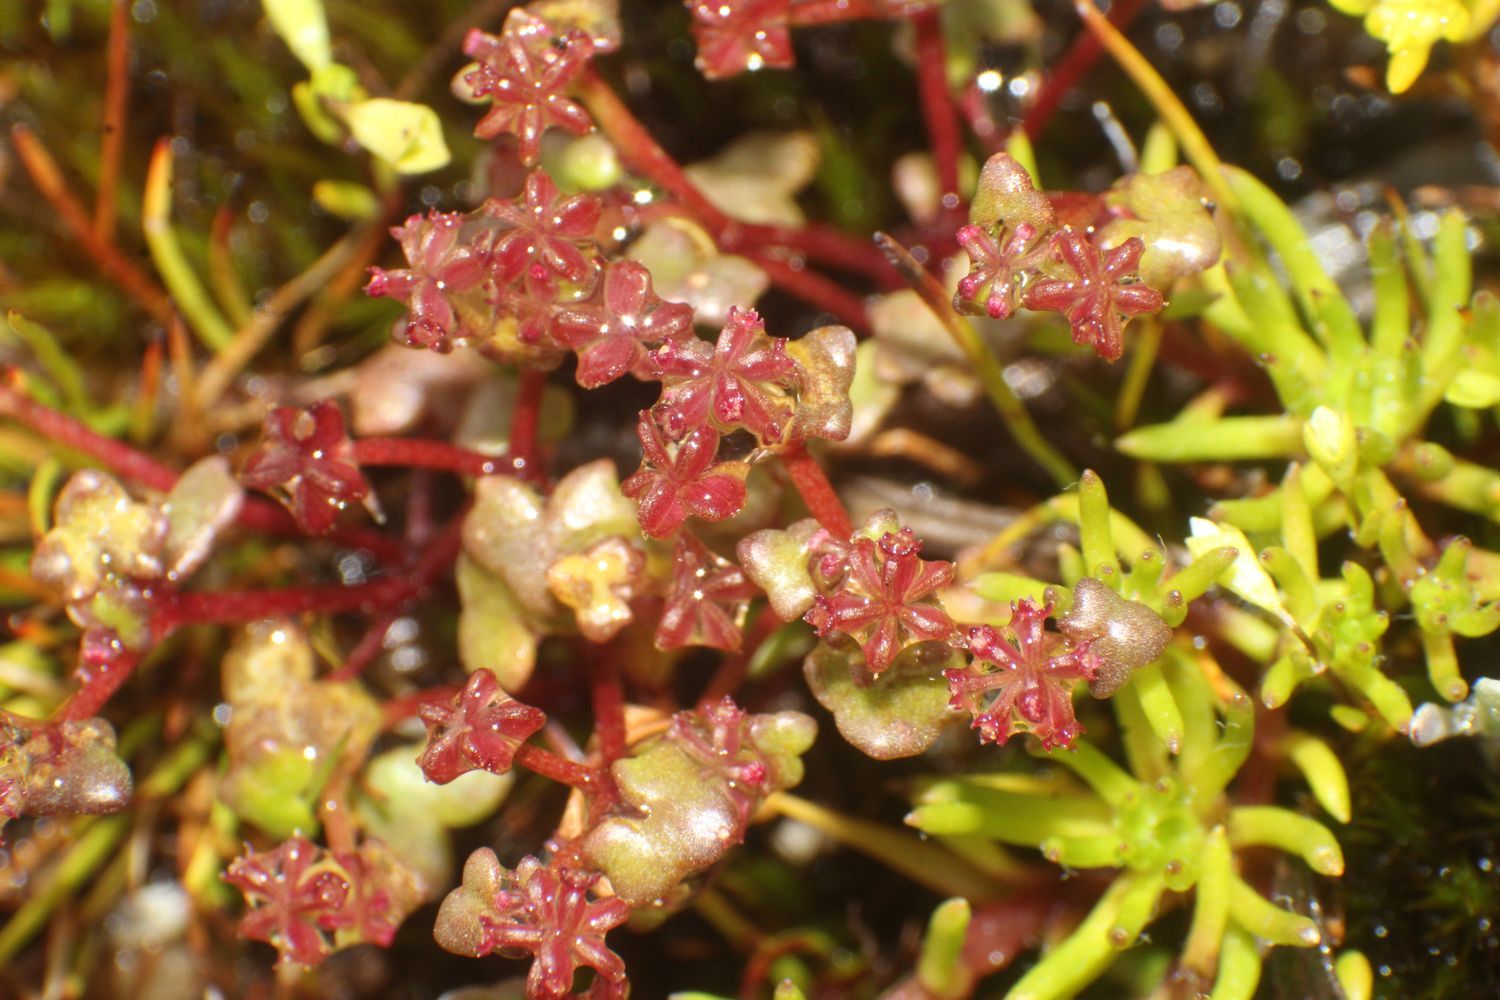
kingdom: Plantae
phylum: Tracheophyta
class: Magnoliopsida
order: Apiales
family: Araliaceae
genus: Hydrocotyle
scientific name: Hydrocotyle alata
